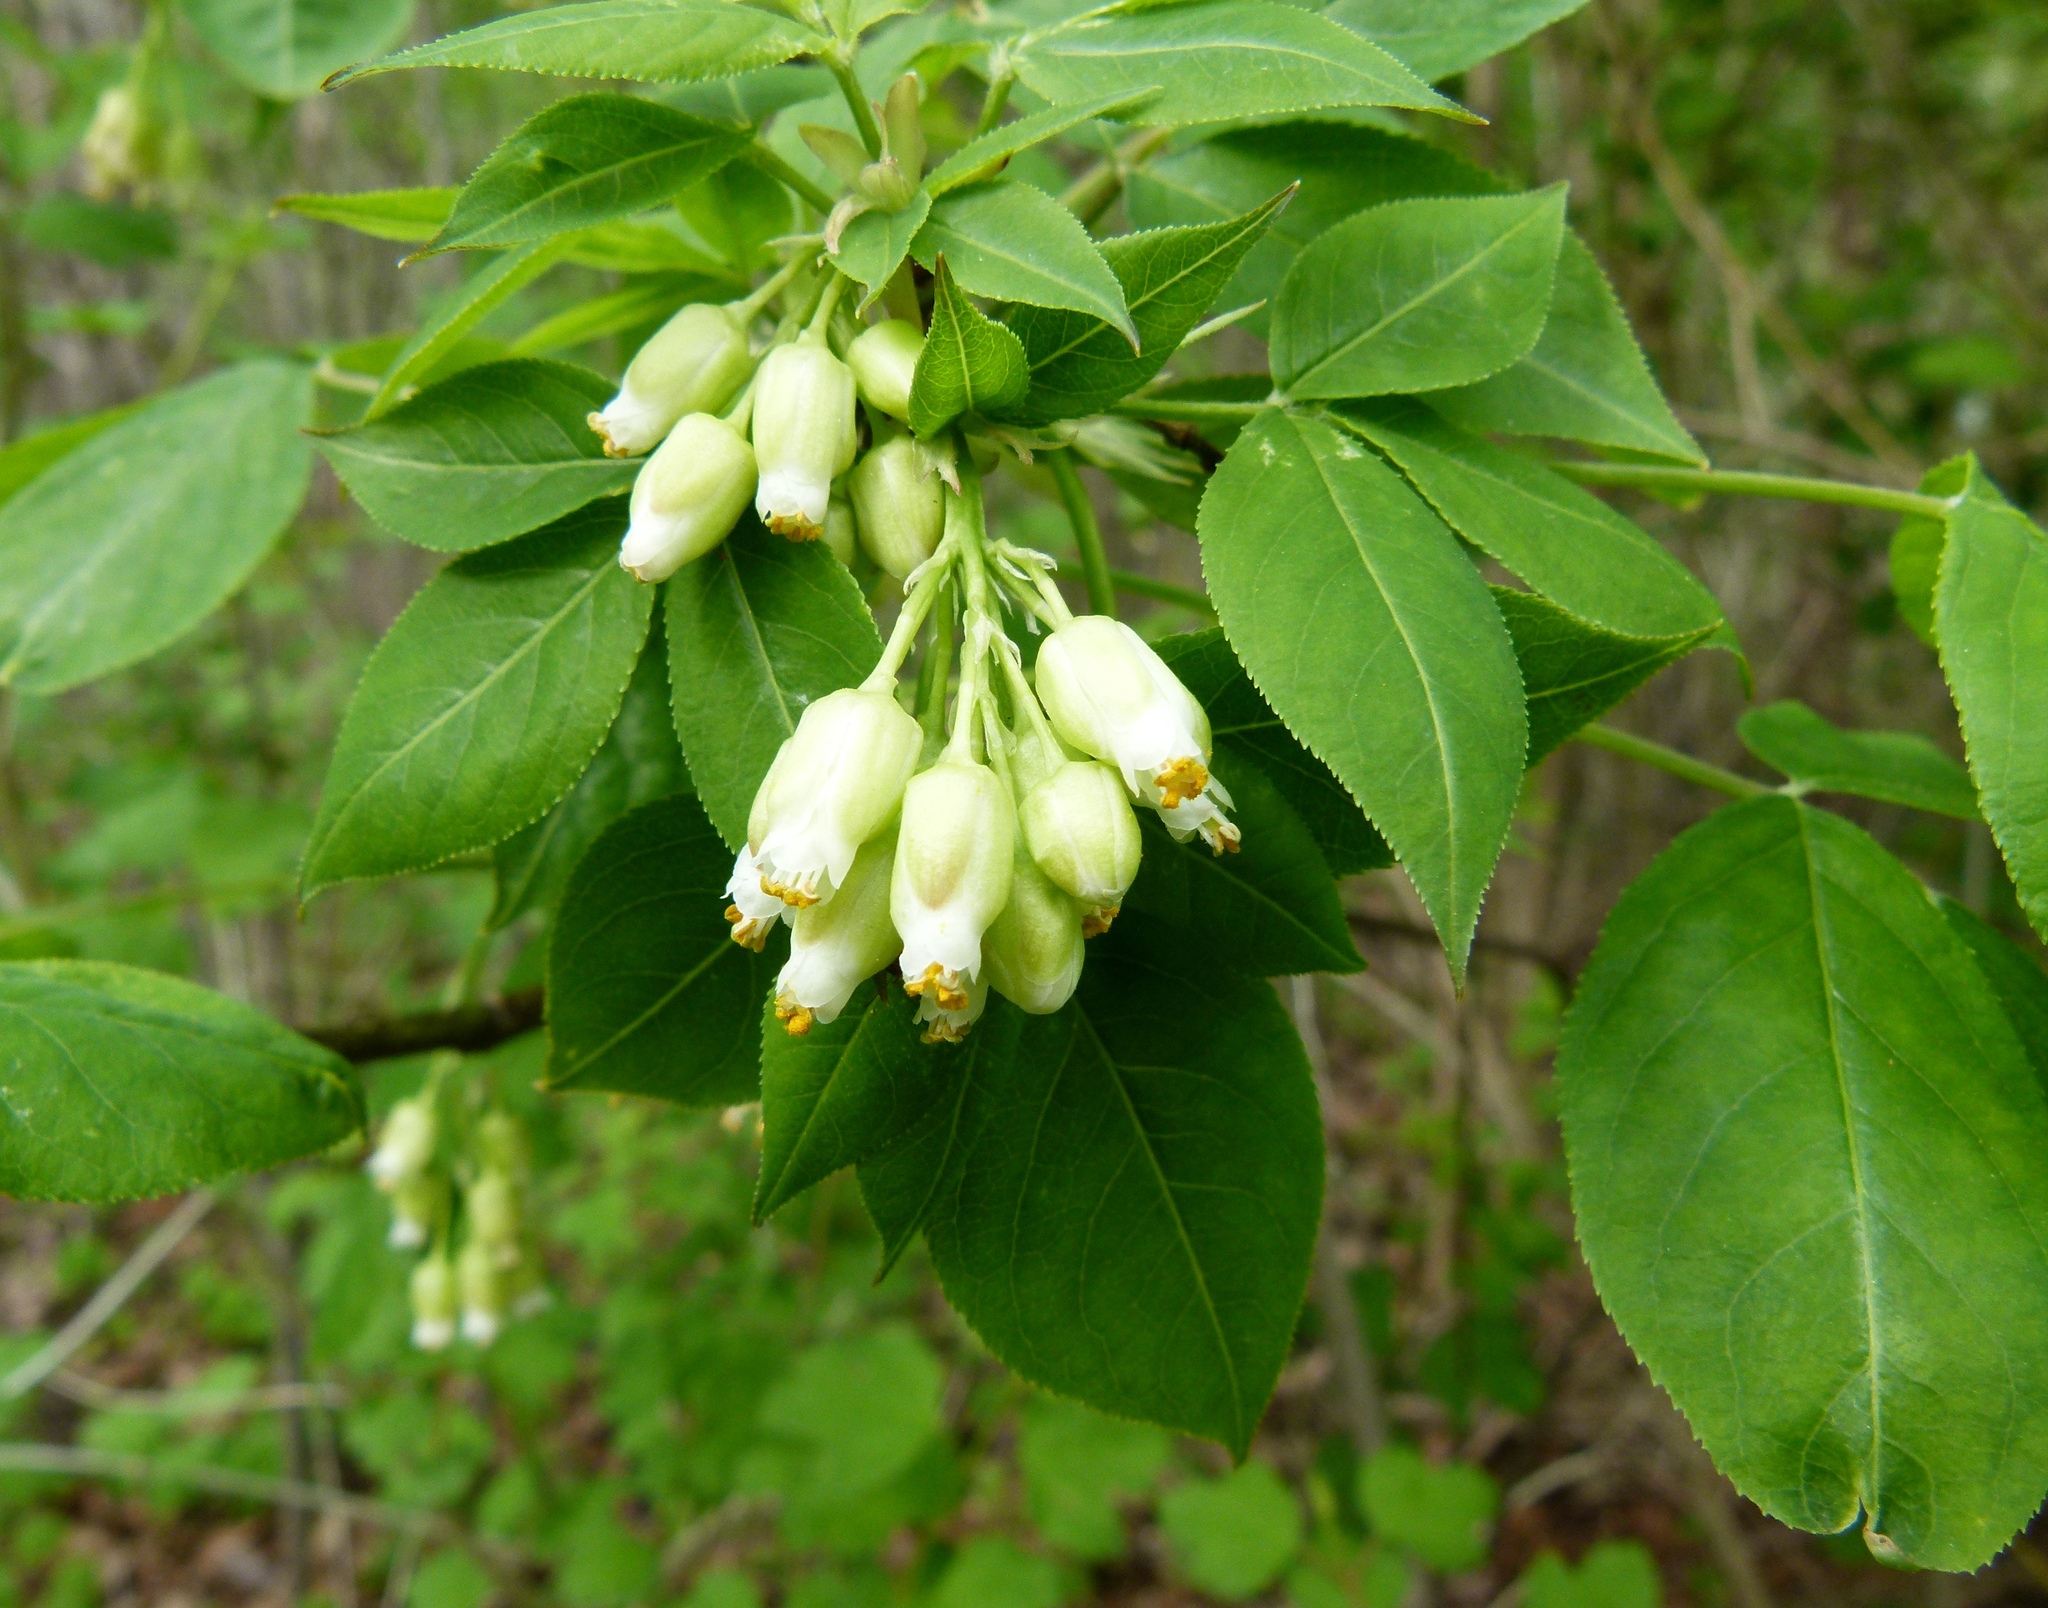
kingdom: Plantae
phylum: Tracheophyta
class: Magnoliopsida
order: Crossosomatales
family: Staphyleaceae
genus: Staphylea
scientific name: Staphylea trifolia
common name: American bladdernut
